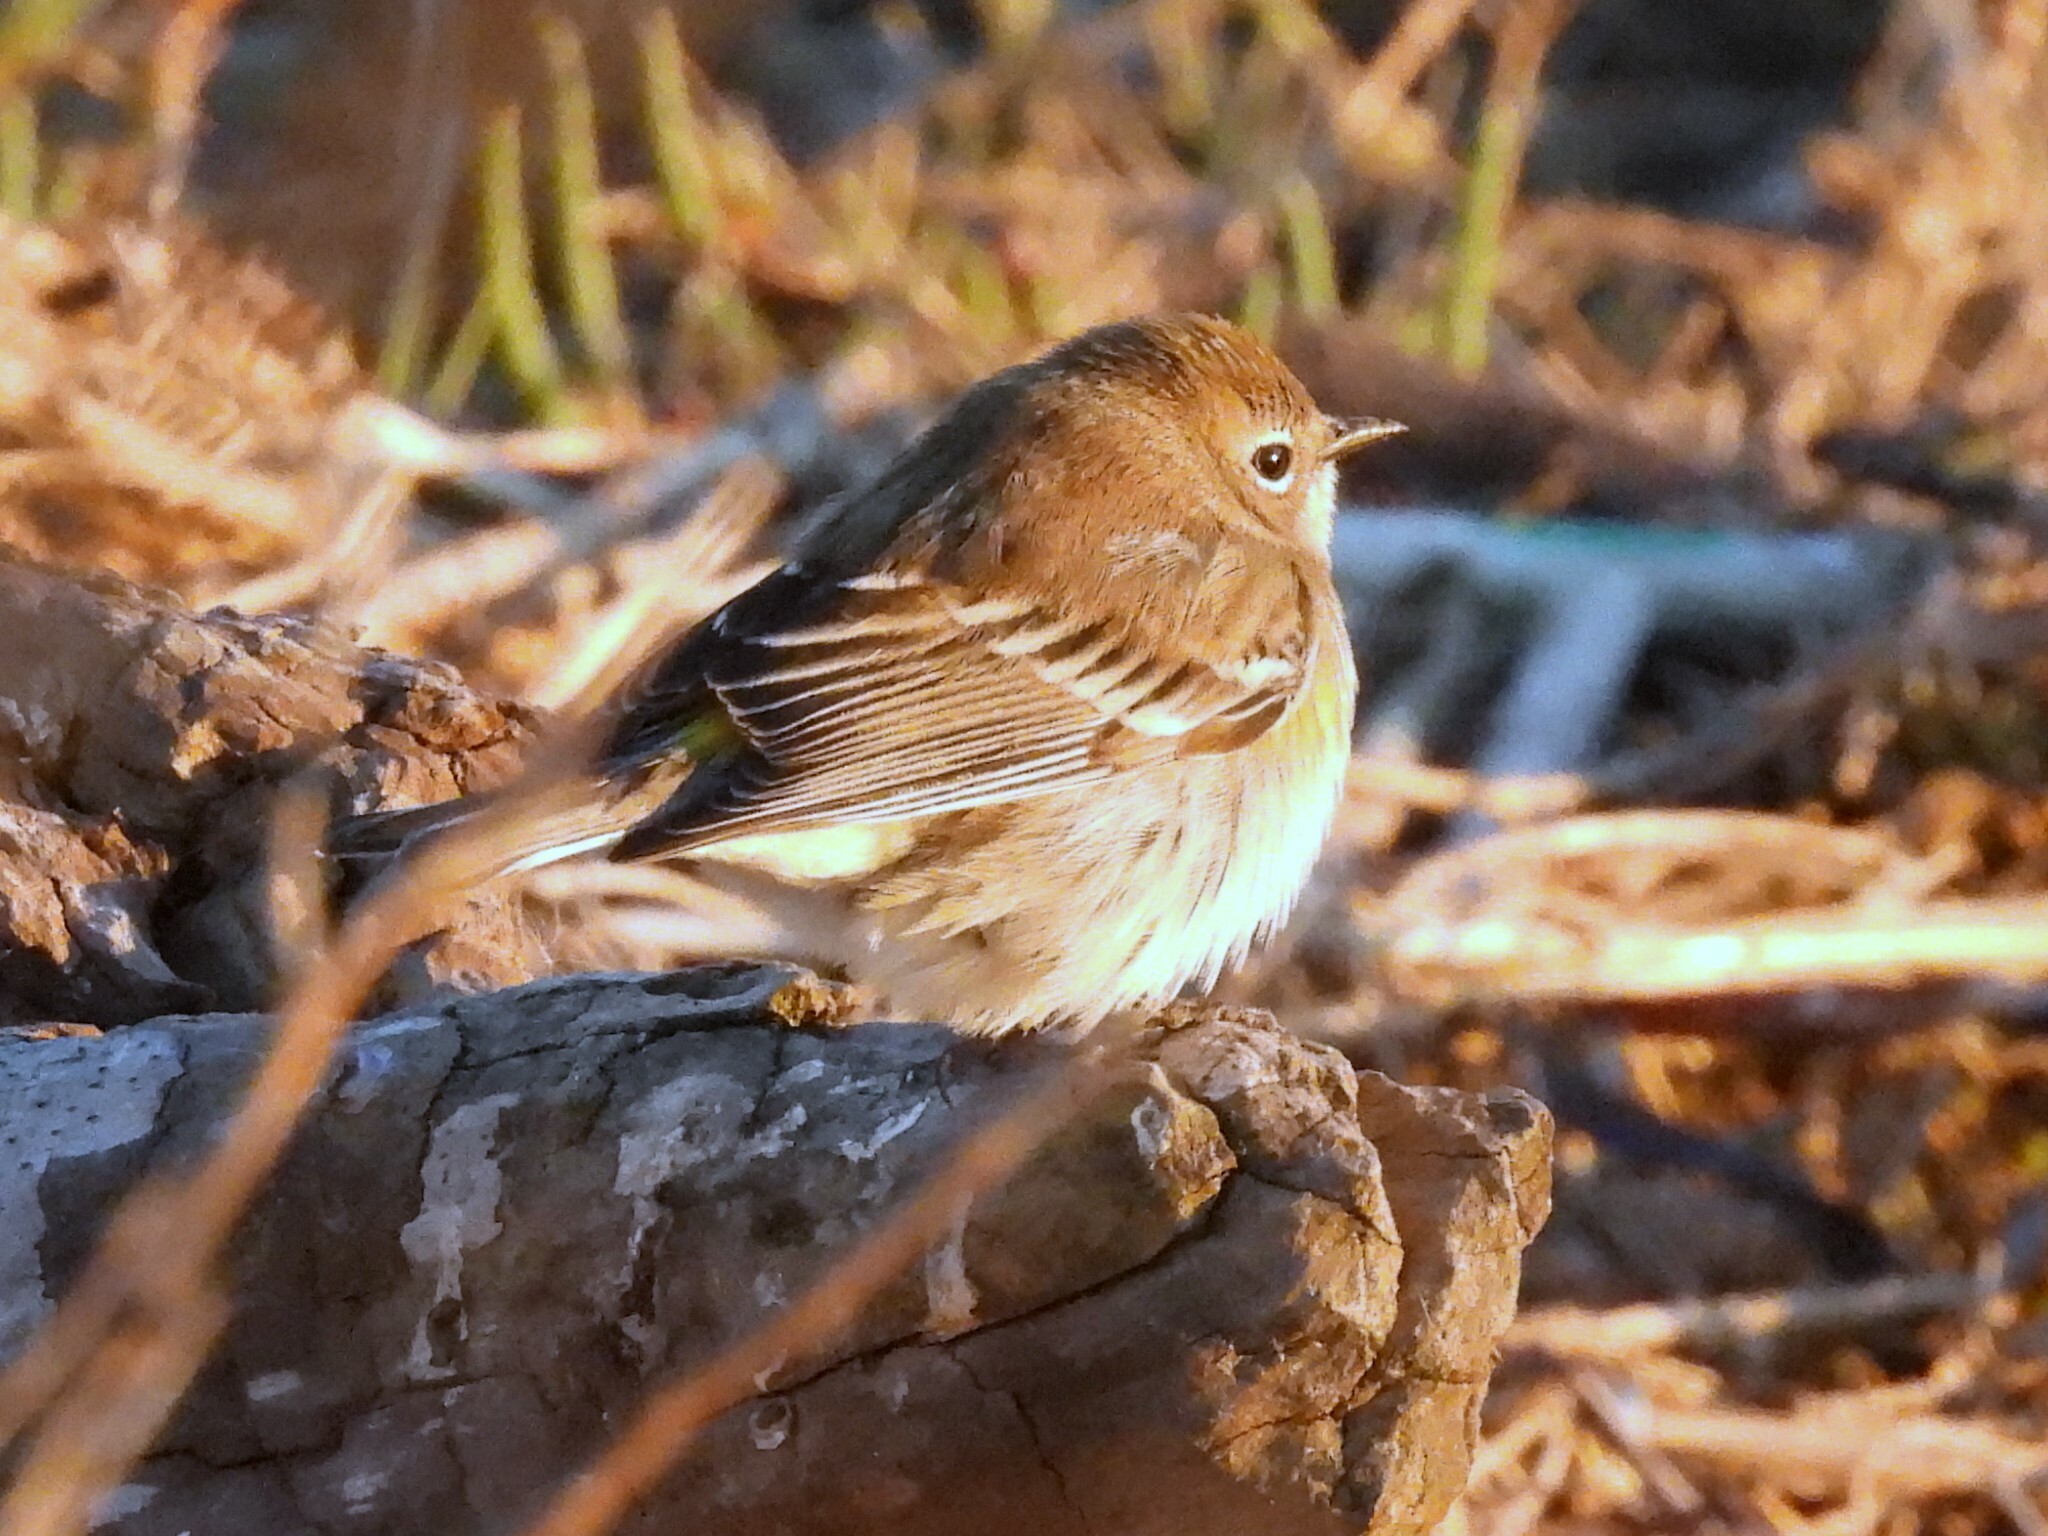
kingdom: Animalia
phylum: Chordata
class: Aves
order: Passeriformes
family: Parulidae
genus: Setophaga
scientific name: Setophaga coronata
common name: Myrtle warbler
